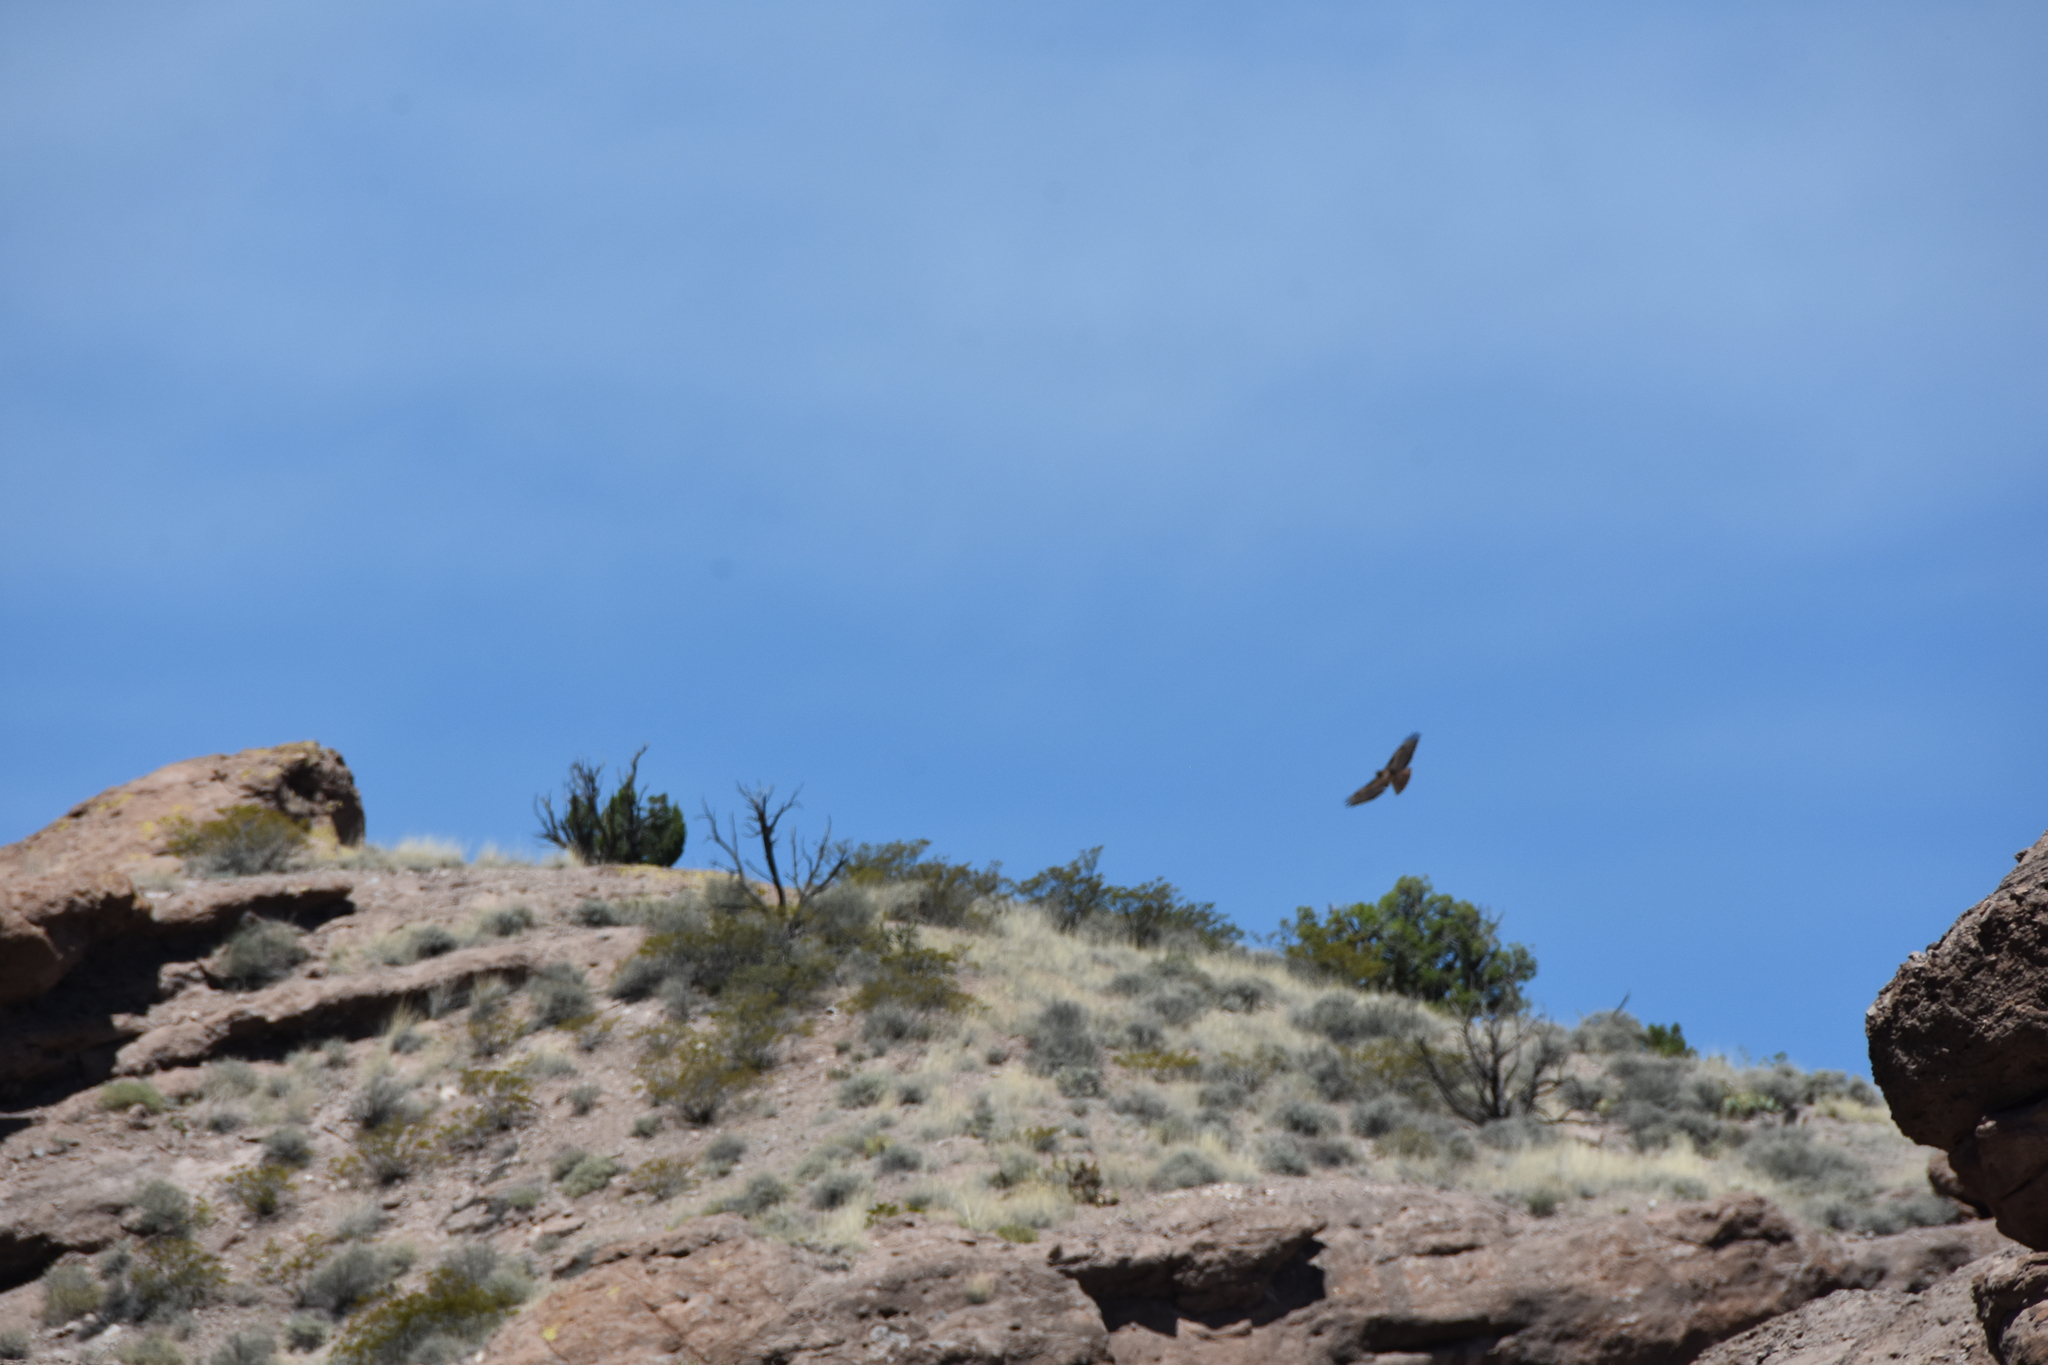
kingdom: Animalia
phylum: Chordata
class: Aves
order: Accipitriformes
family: Accipitridae
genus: Buteo
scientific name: Buteo jamaicensis
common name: Red-tailed hawk
